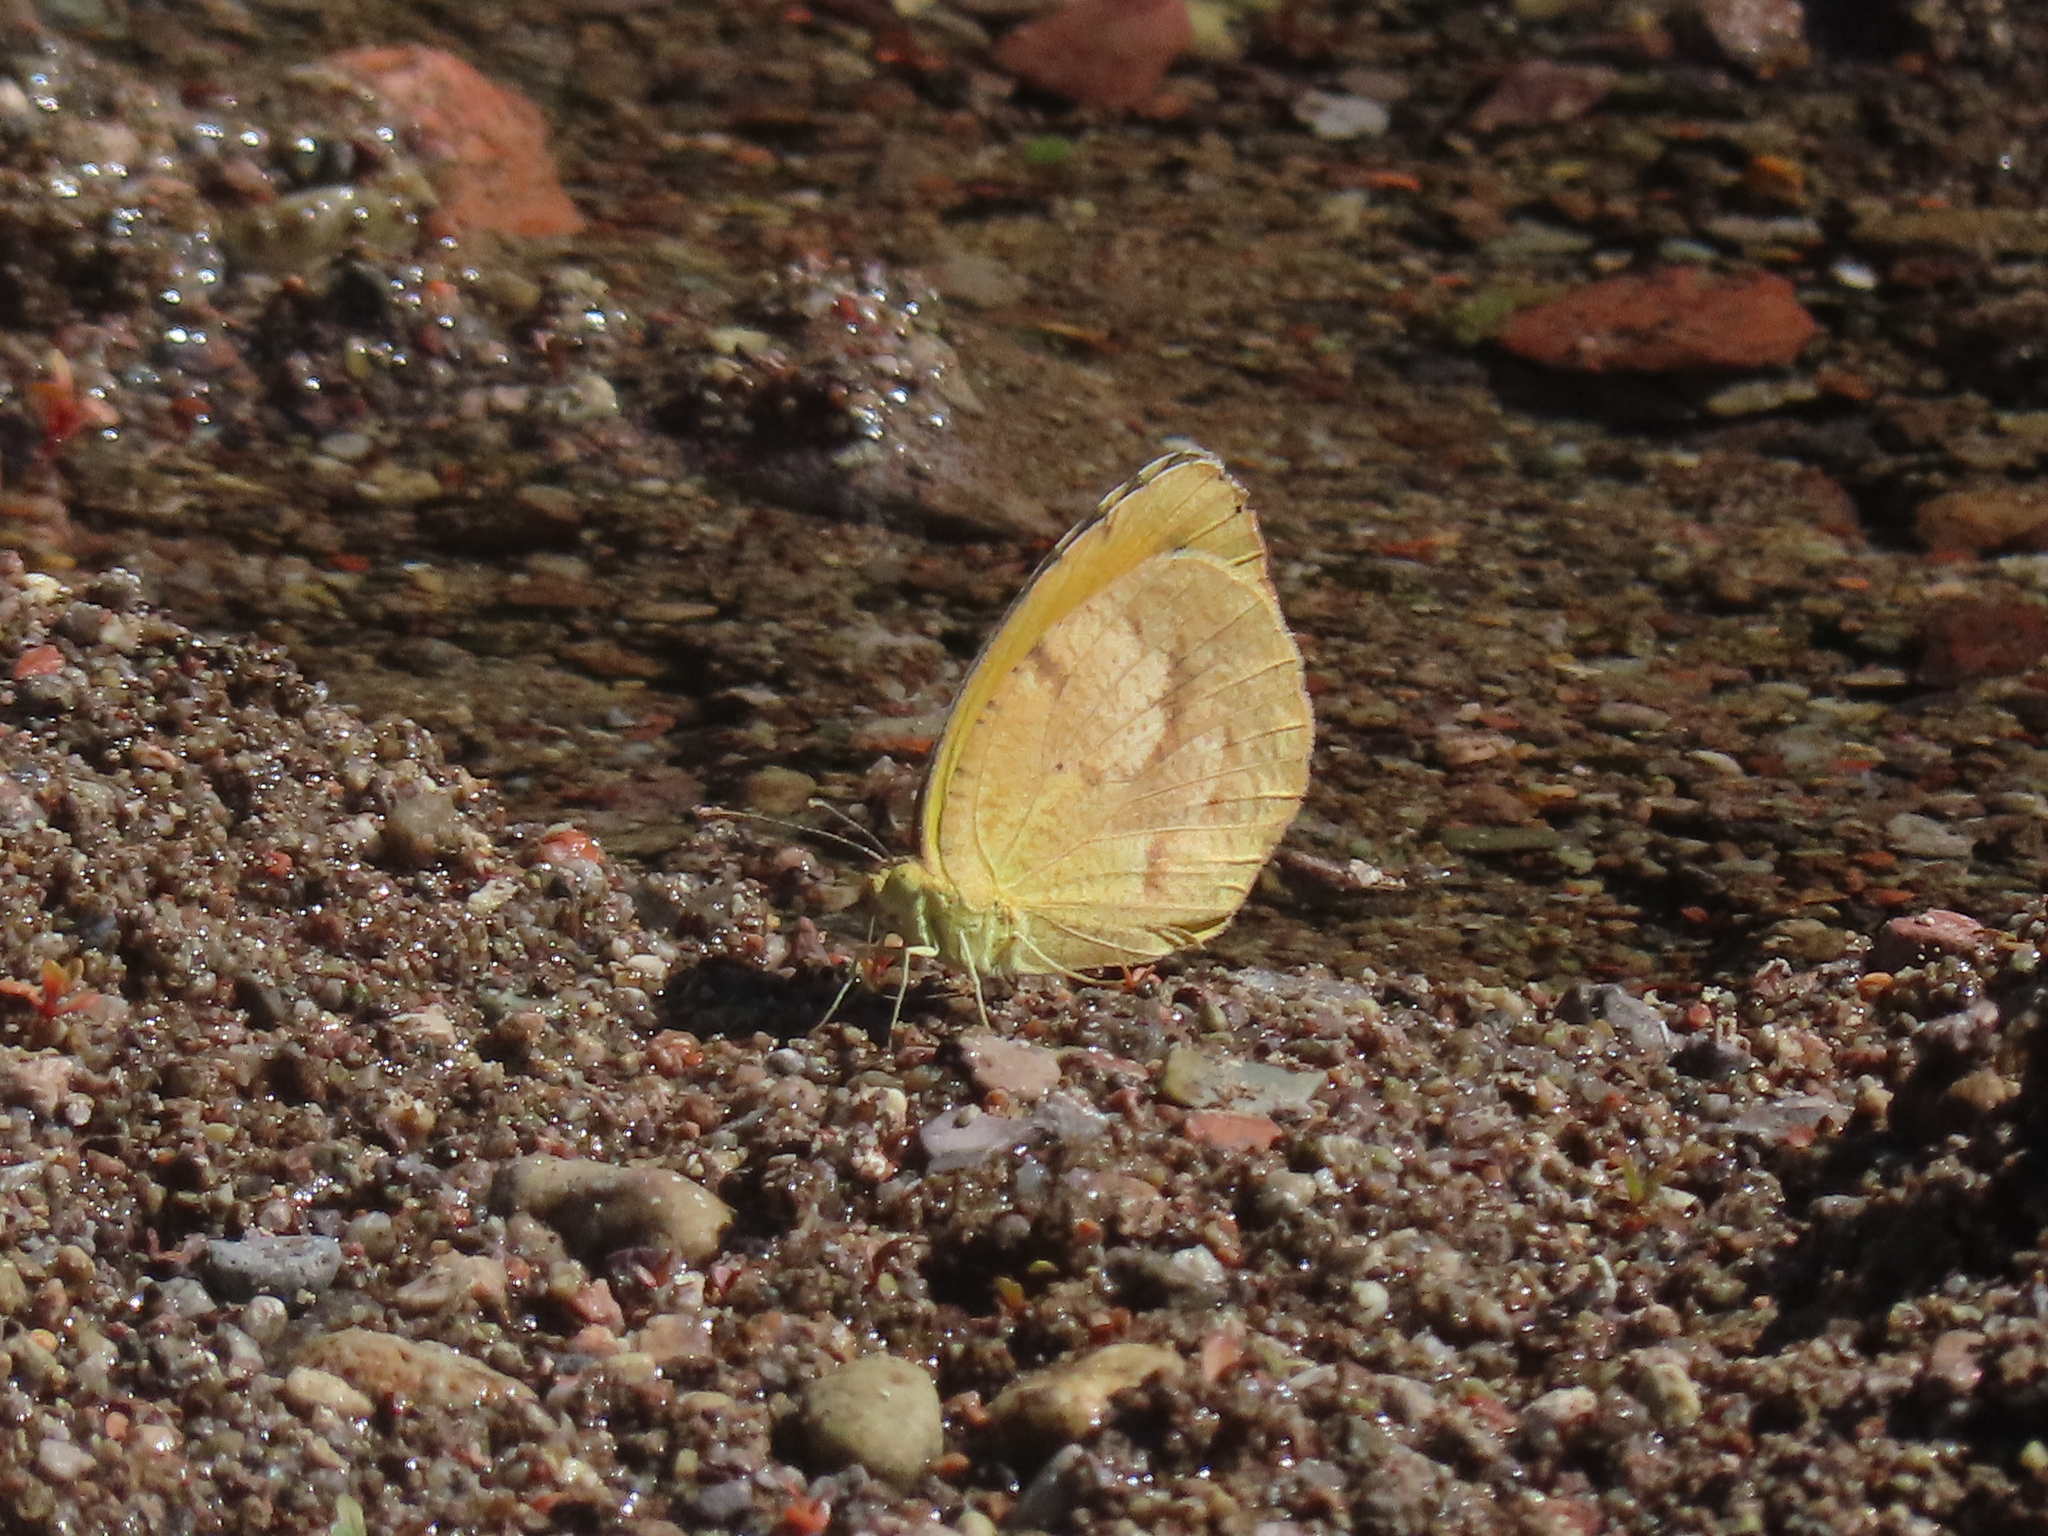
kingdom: Animalia
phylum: Arthropoda
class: Insecta
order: Lepidoptera
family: Pieridae
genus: Abaeis
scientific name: Abaeis nicippe
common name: Sleepy orange
